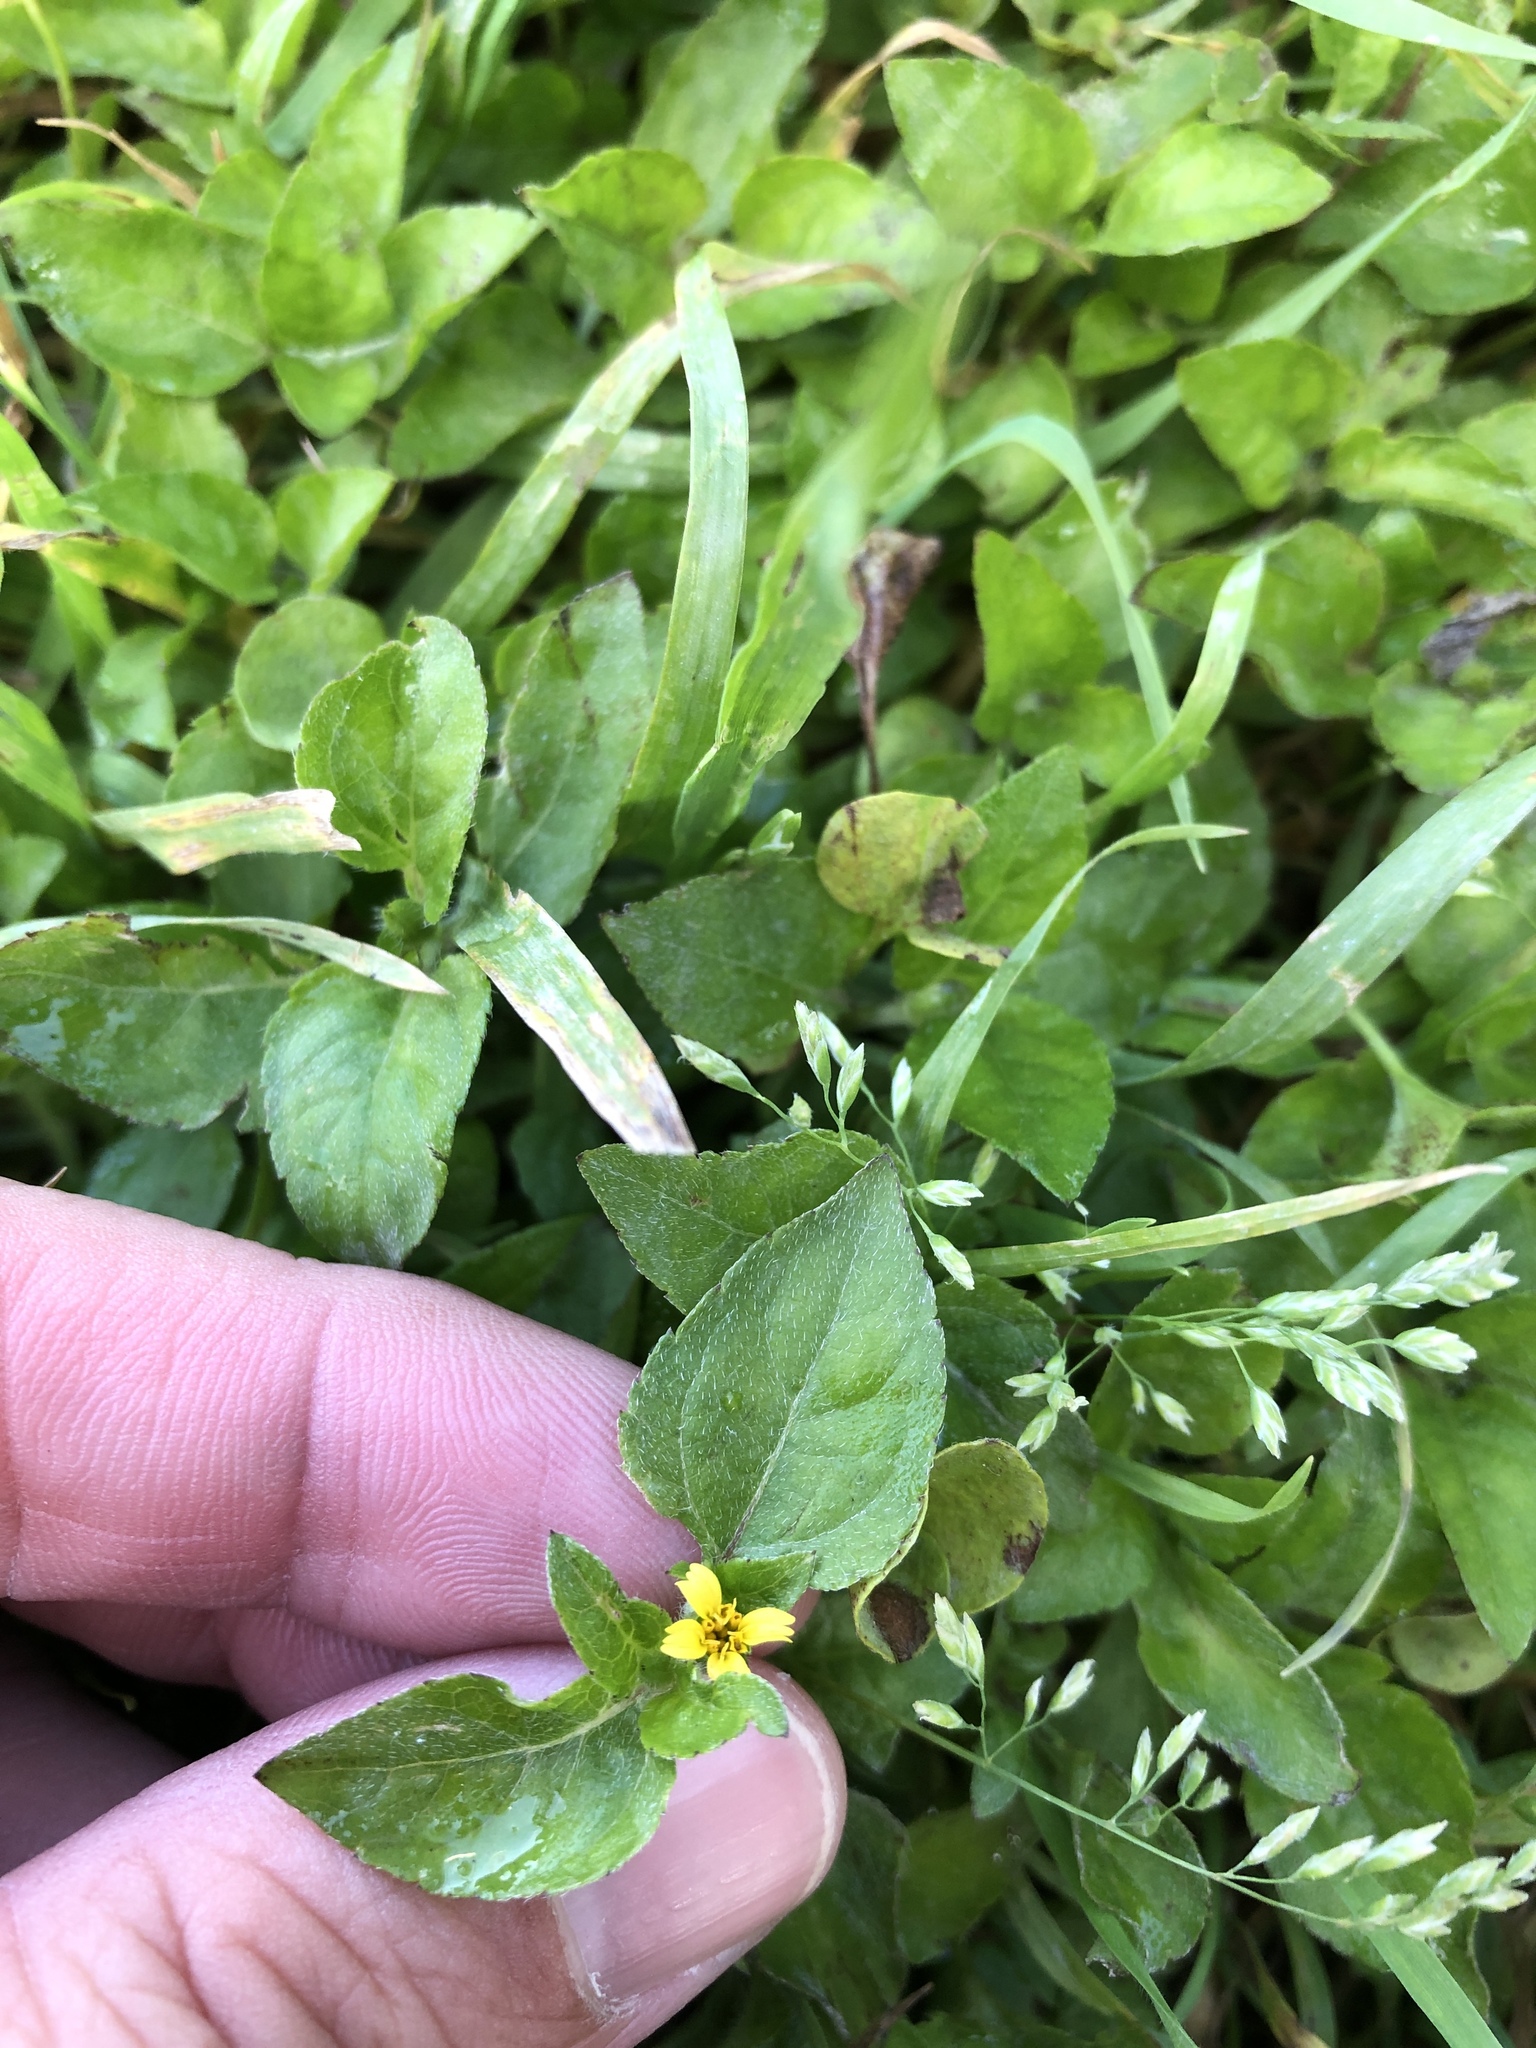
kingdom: Plantae
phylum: Tracheophyta
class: Magnoliopsida
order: Asterales
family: Asteraceae
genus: Calyptocarpus
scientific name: Calyptocarpus vialis
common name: Straggler daisy
